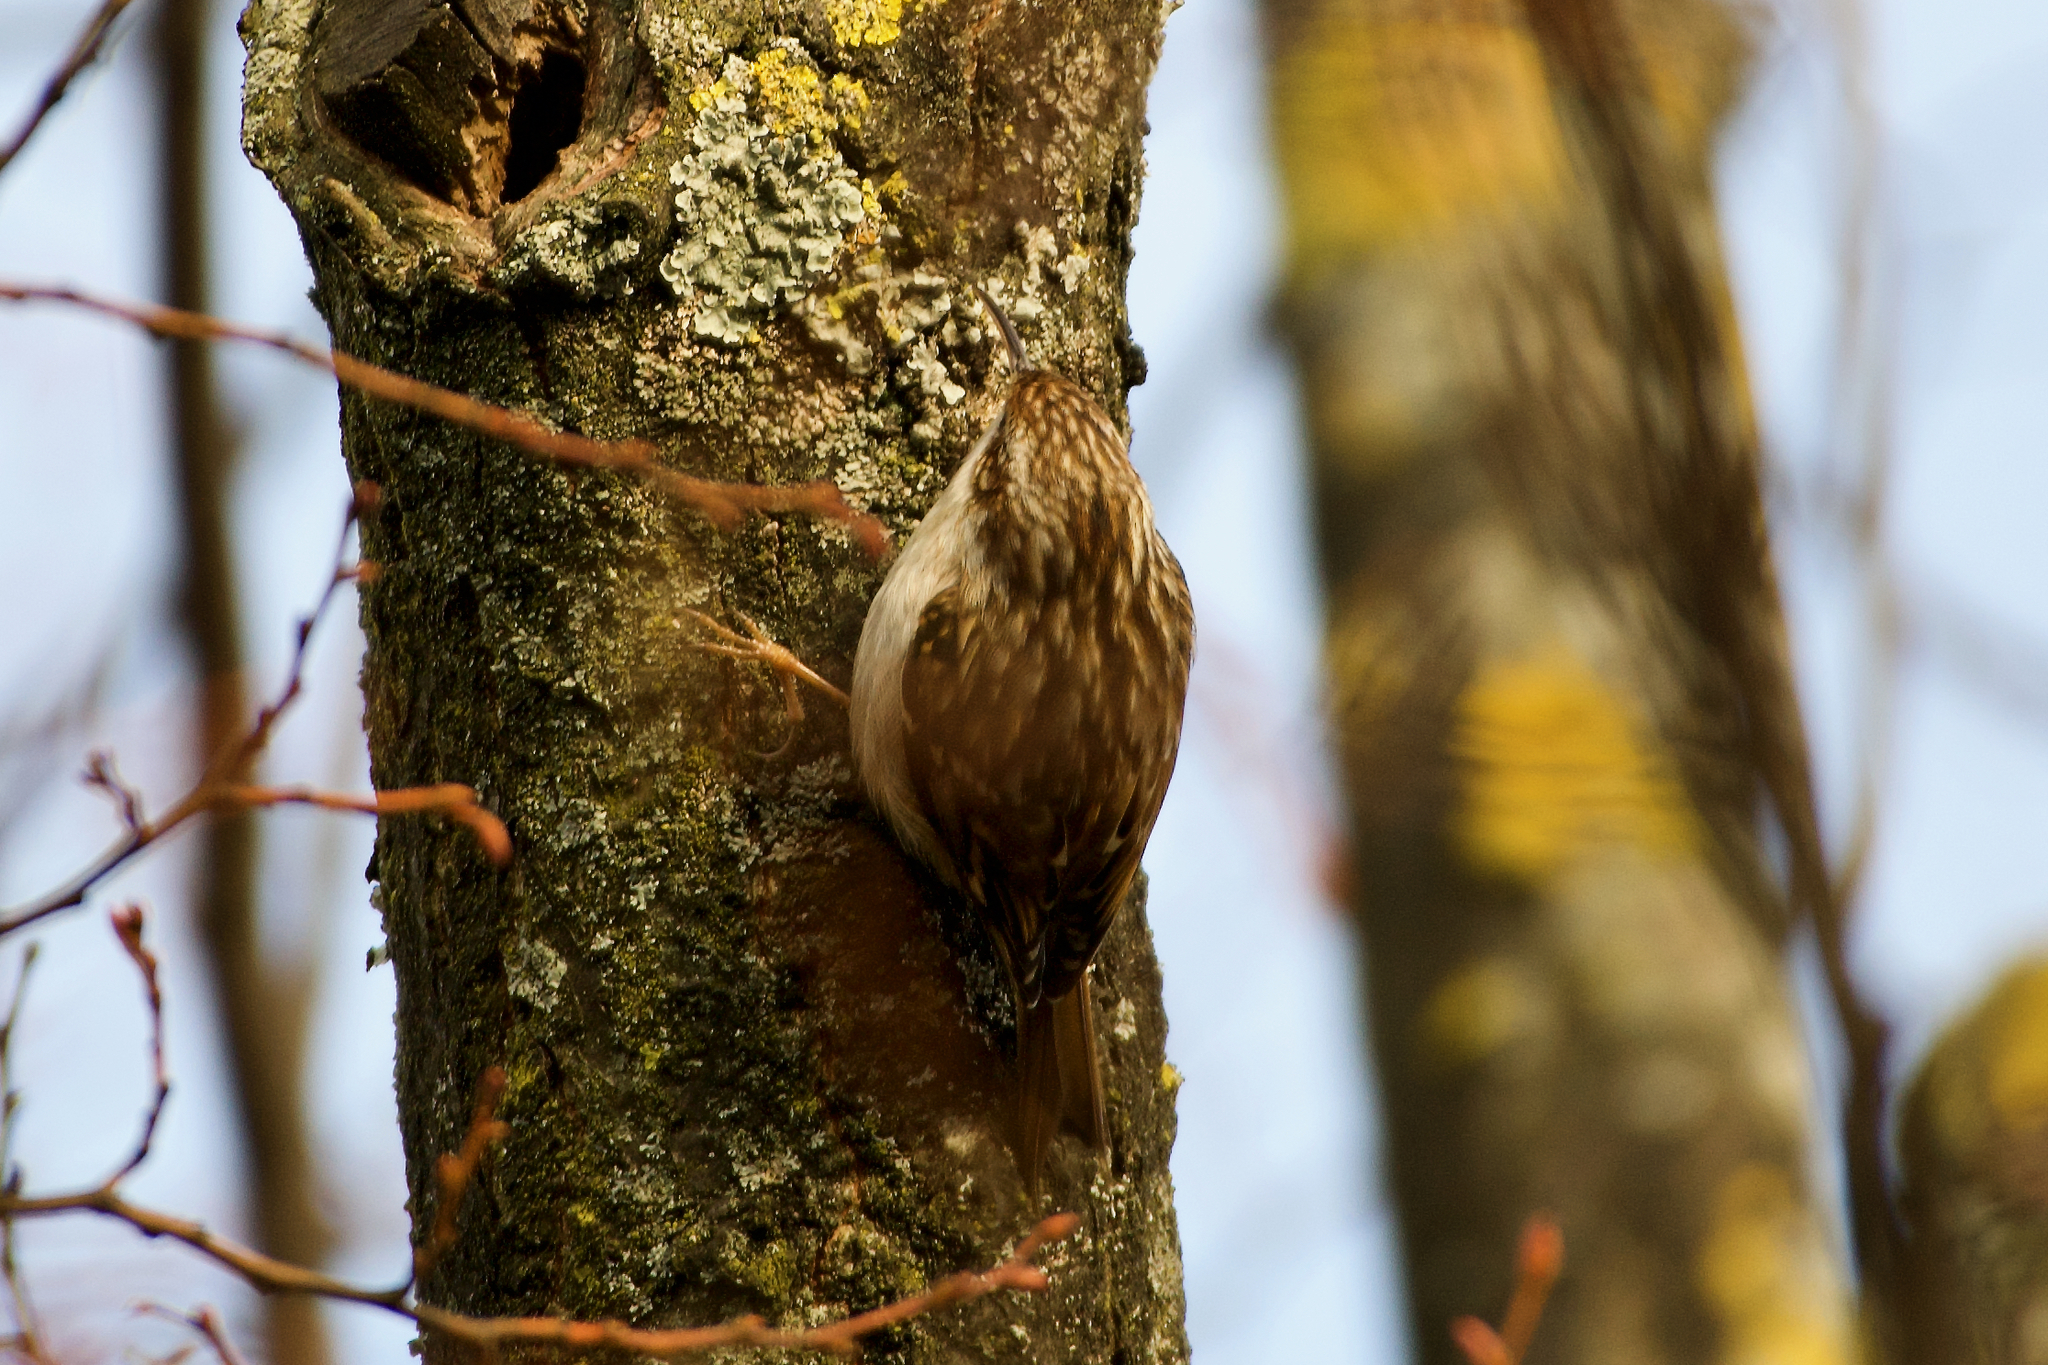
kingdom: Animalia
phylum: Chordata
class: Aves
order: Passeriformes
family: Certhiidae
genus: Certhia
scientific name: Certhia brachydactyla
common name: Short-toed treecreeper
